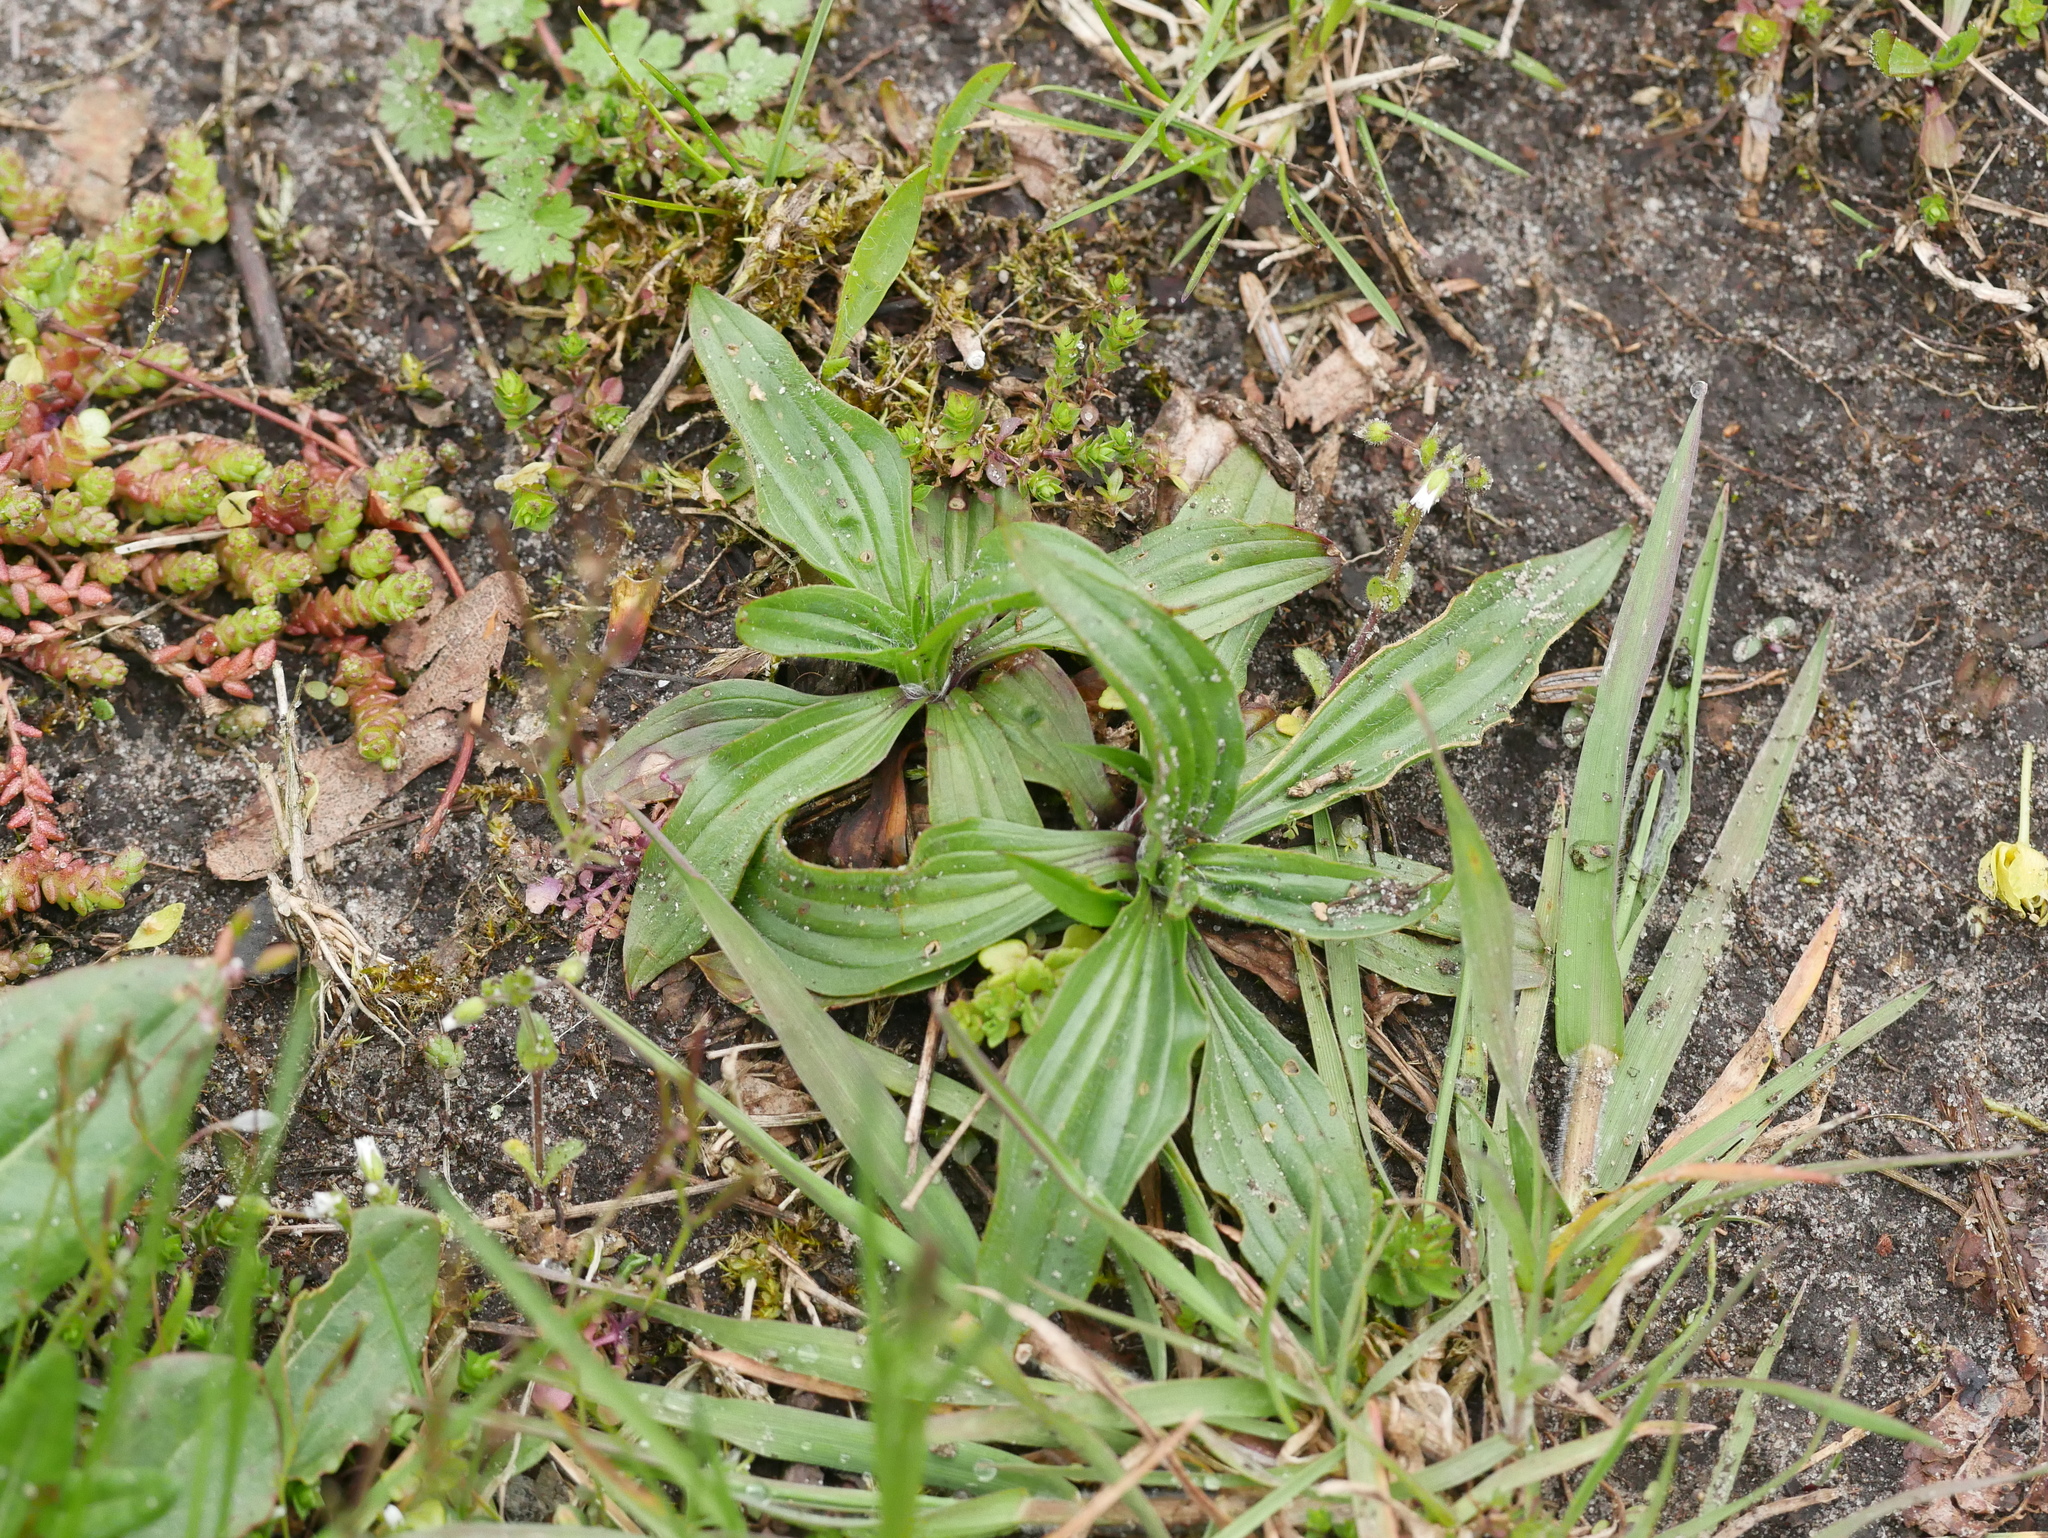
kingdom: Plantae
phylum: Tracheophyta
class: Magnoliopsida
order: Lamiales
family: Plantaginaceae
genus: Plantago
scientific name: Plantago lanceolata
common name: Ribwort plantain
